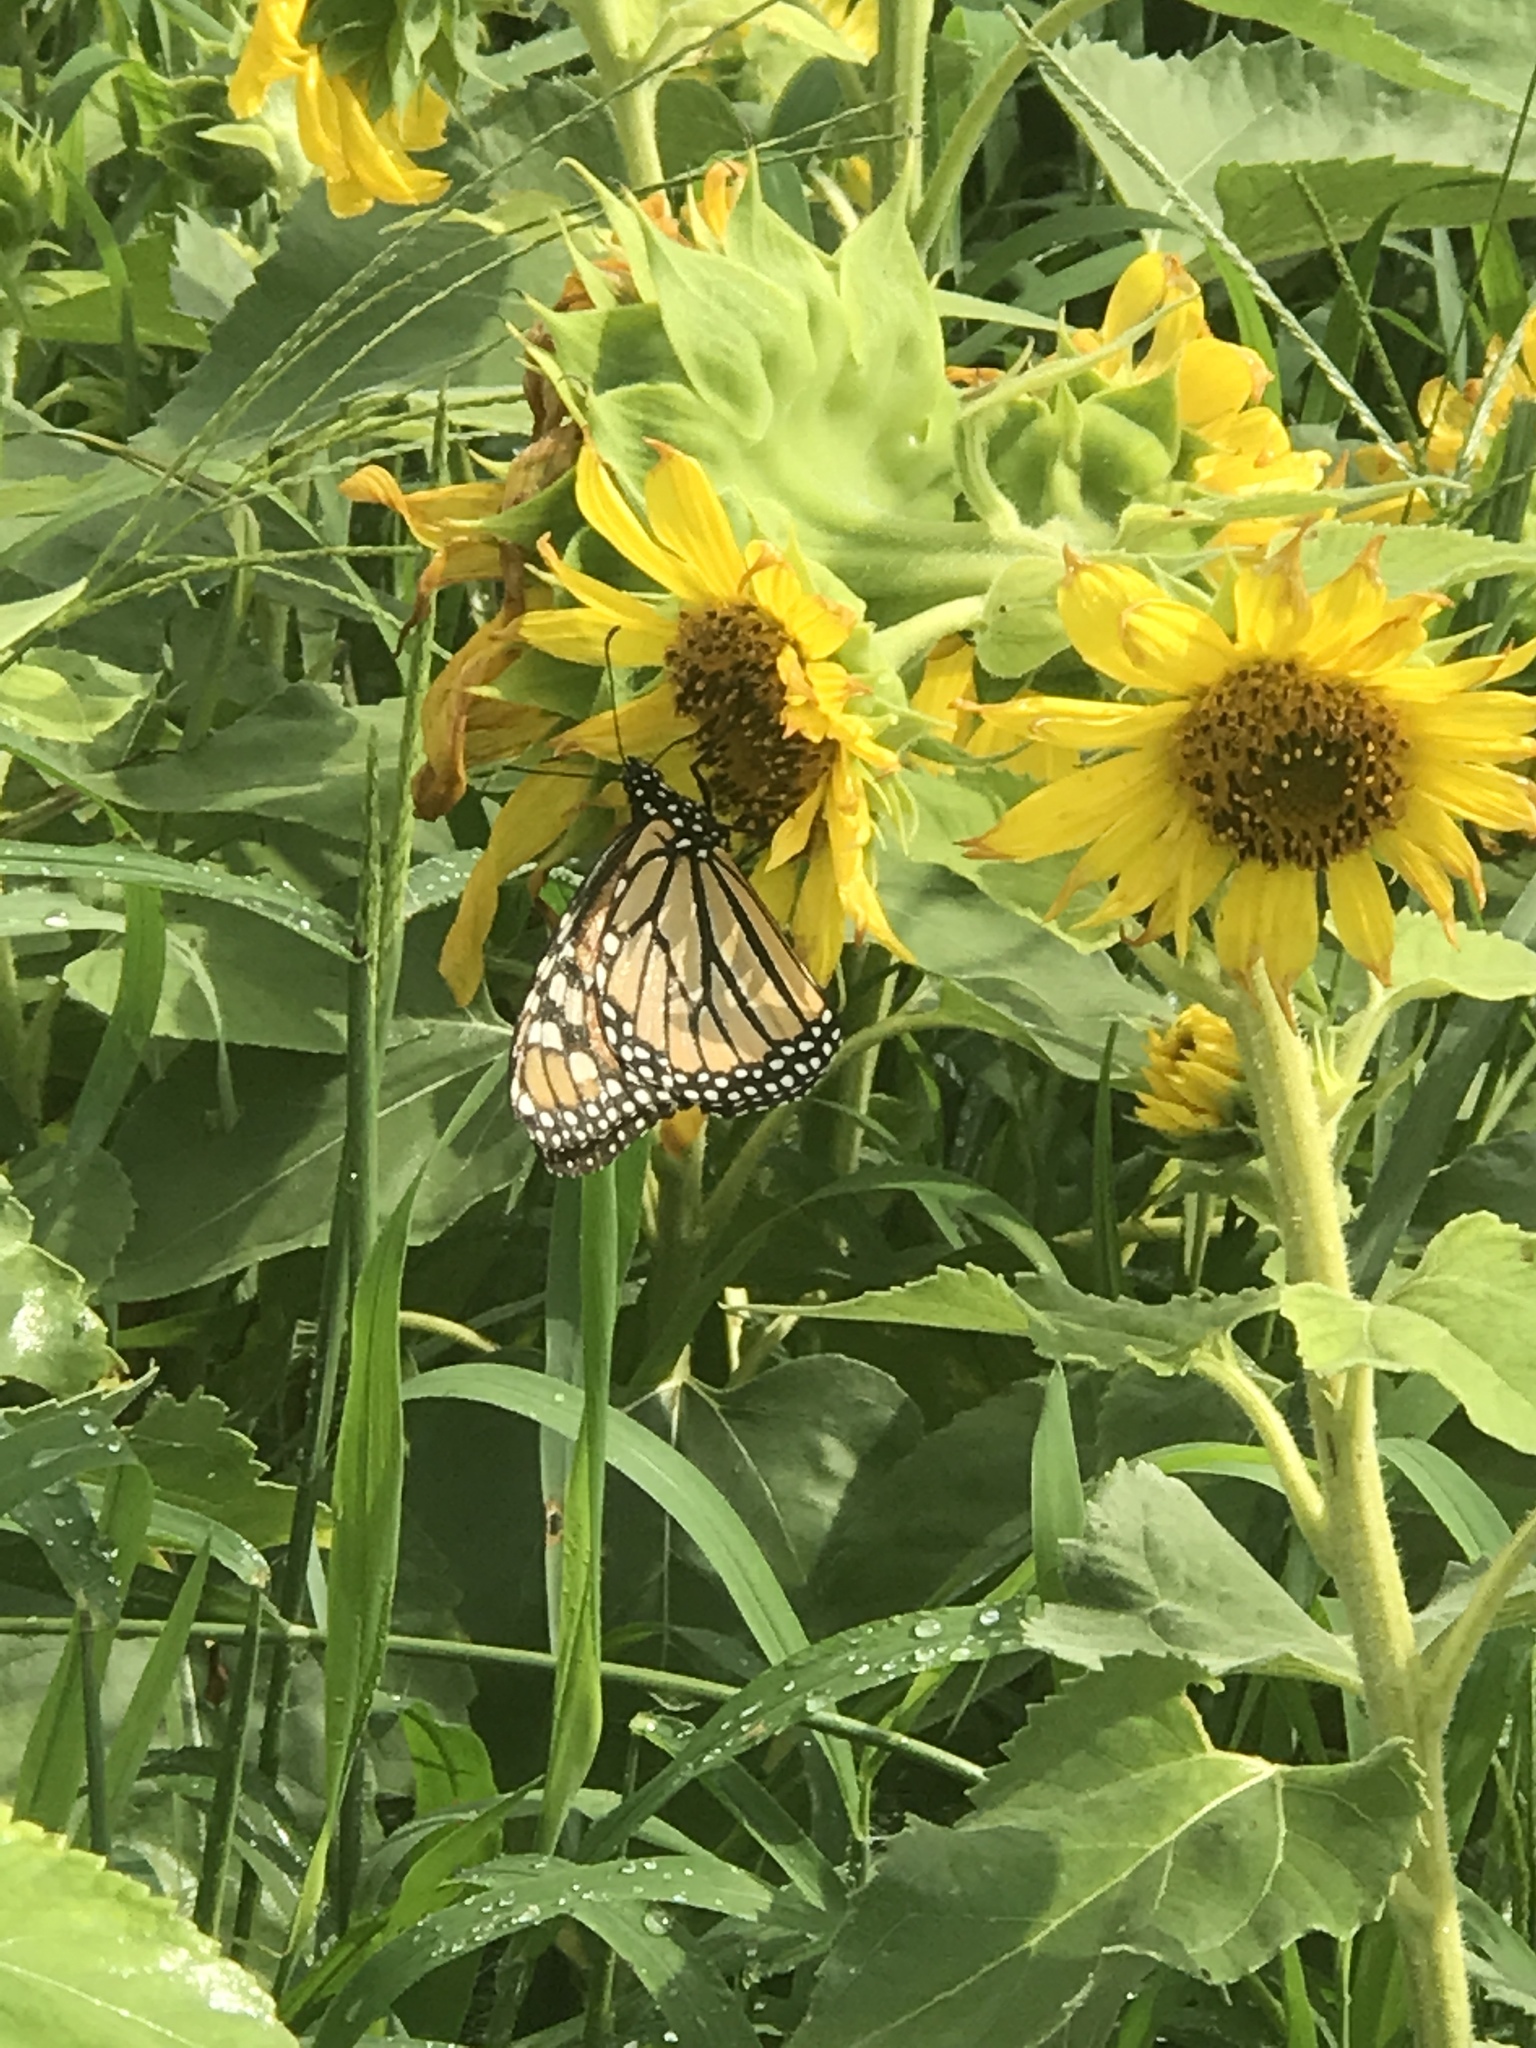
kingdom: Animalia
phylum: Arthropoda
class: Insecta
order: Lepidoptera
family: Nymphalidae
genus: Danaus
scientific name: Danaus plexippus
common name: Monarch
